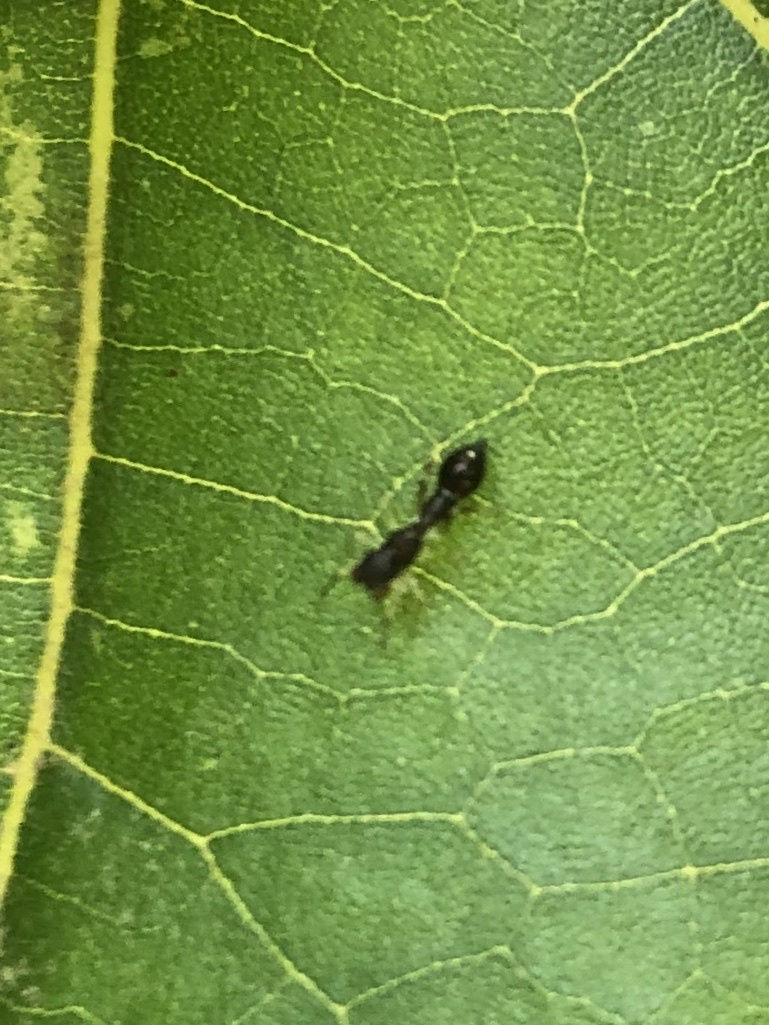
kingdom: Animalia
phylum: Arthropoda
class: Arachnida
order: Araneae
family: Salticidae
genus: Synemosyna
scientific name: Synemosyna formica
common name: Slender ant-mimic jumping spider
